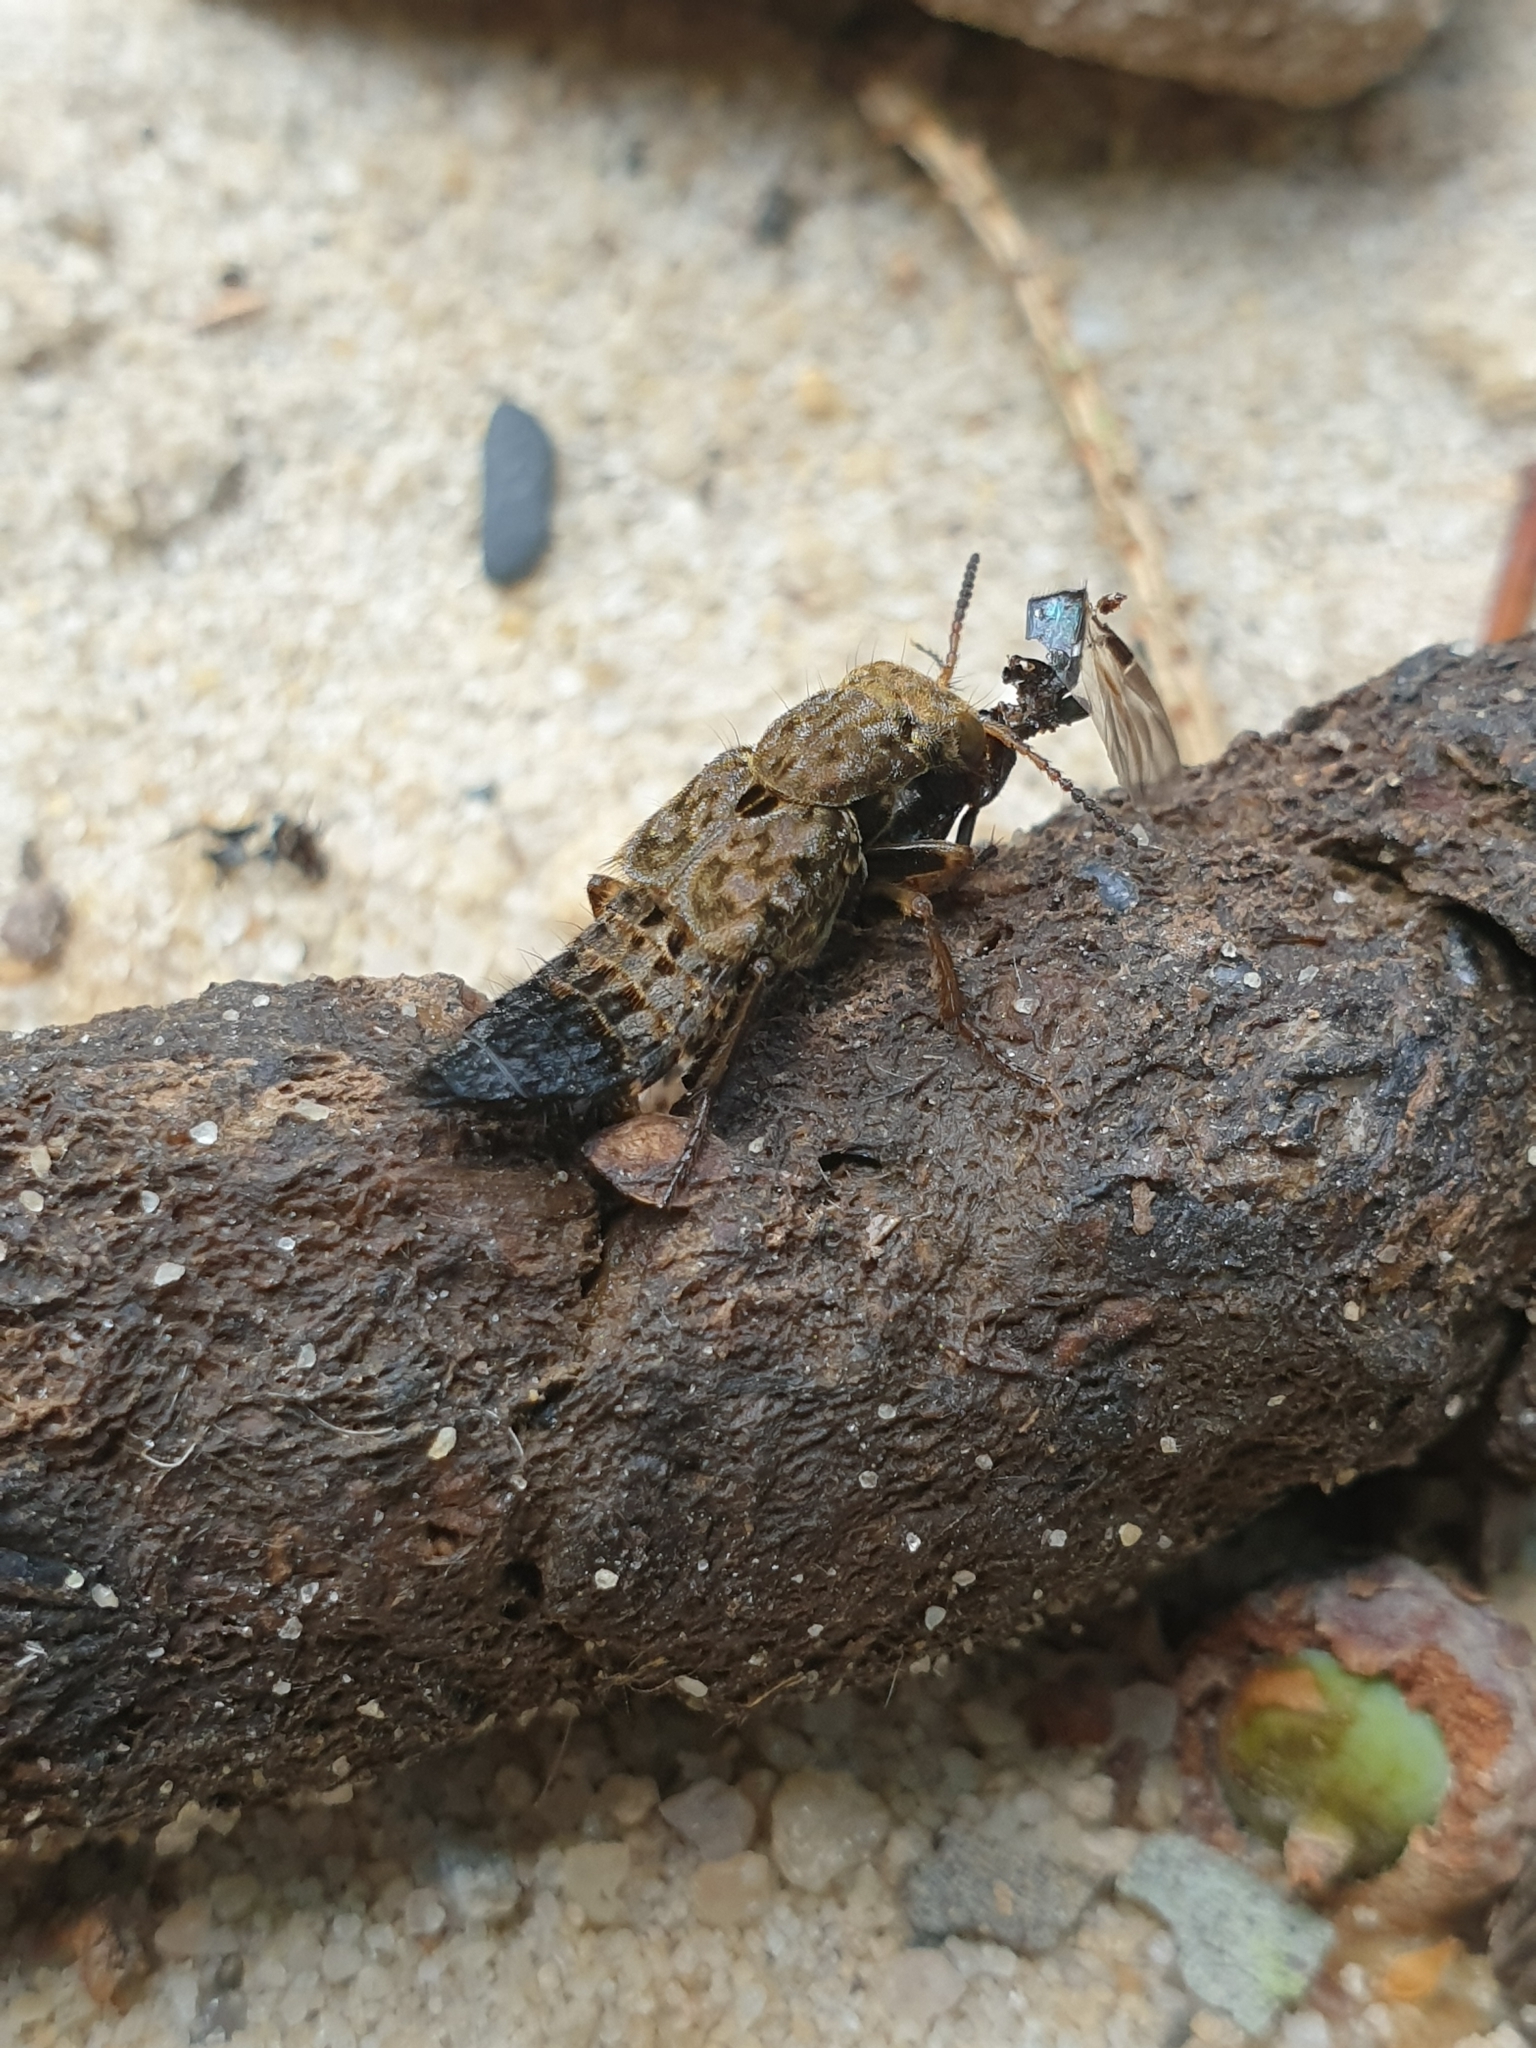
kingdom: Animalia
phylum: Arthropoda
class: Insecta
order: Coleoptera
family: Staphylinidae
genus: Ontholestes
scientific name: Ontholestes tessellatus
